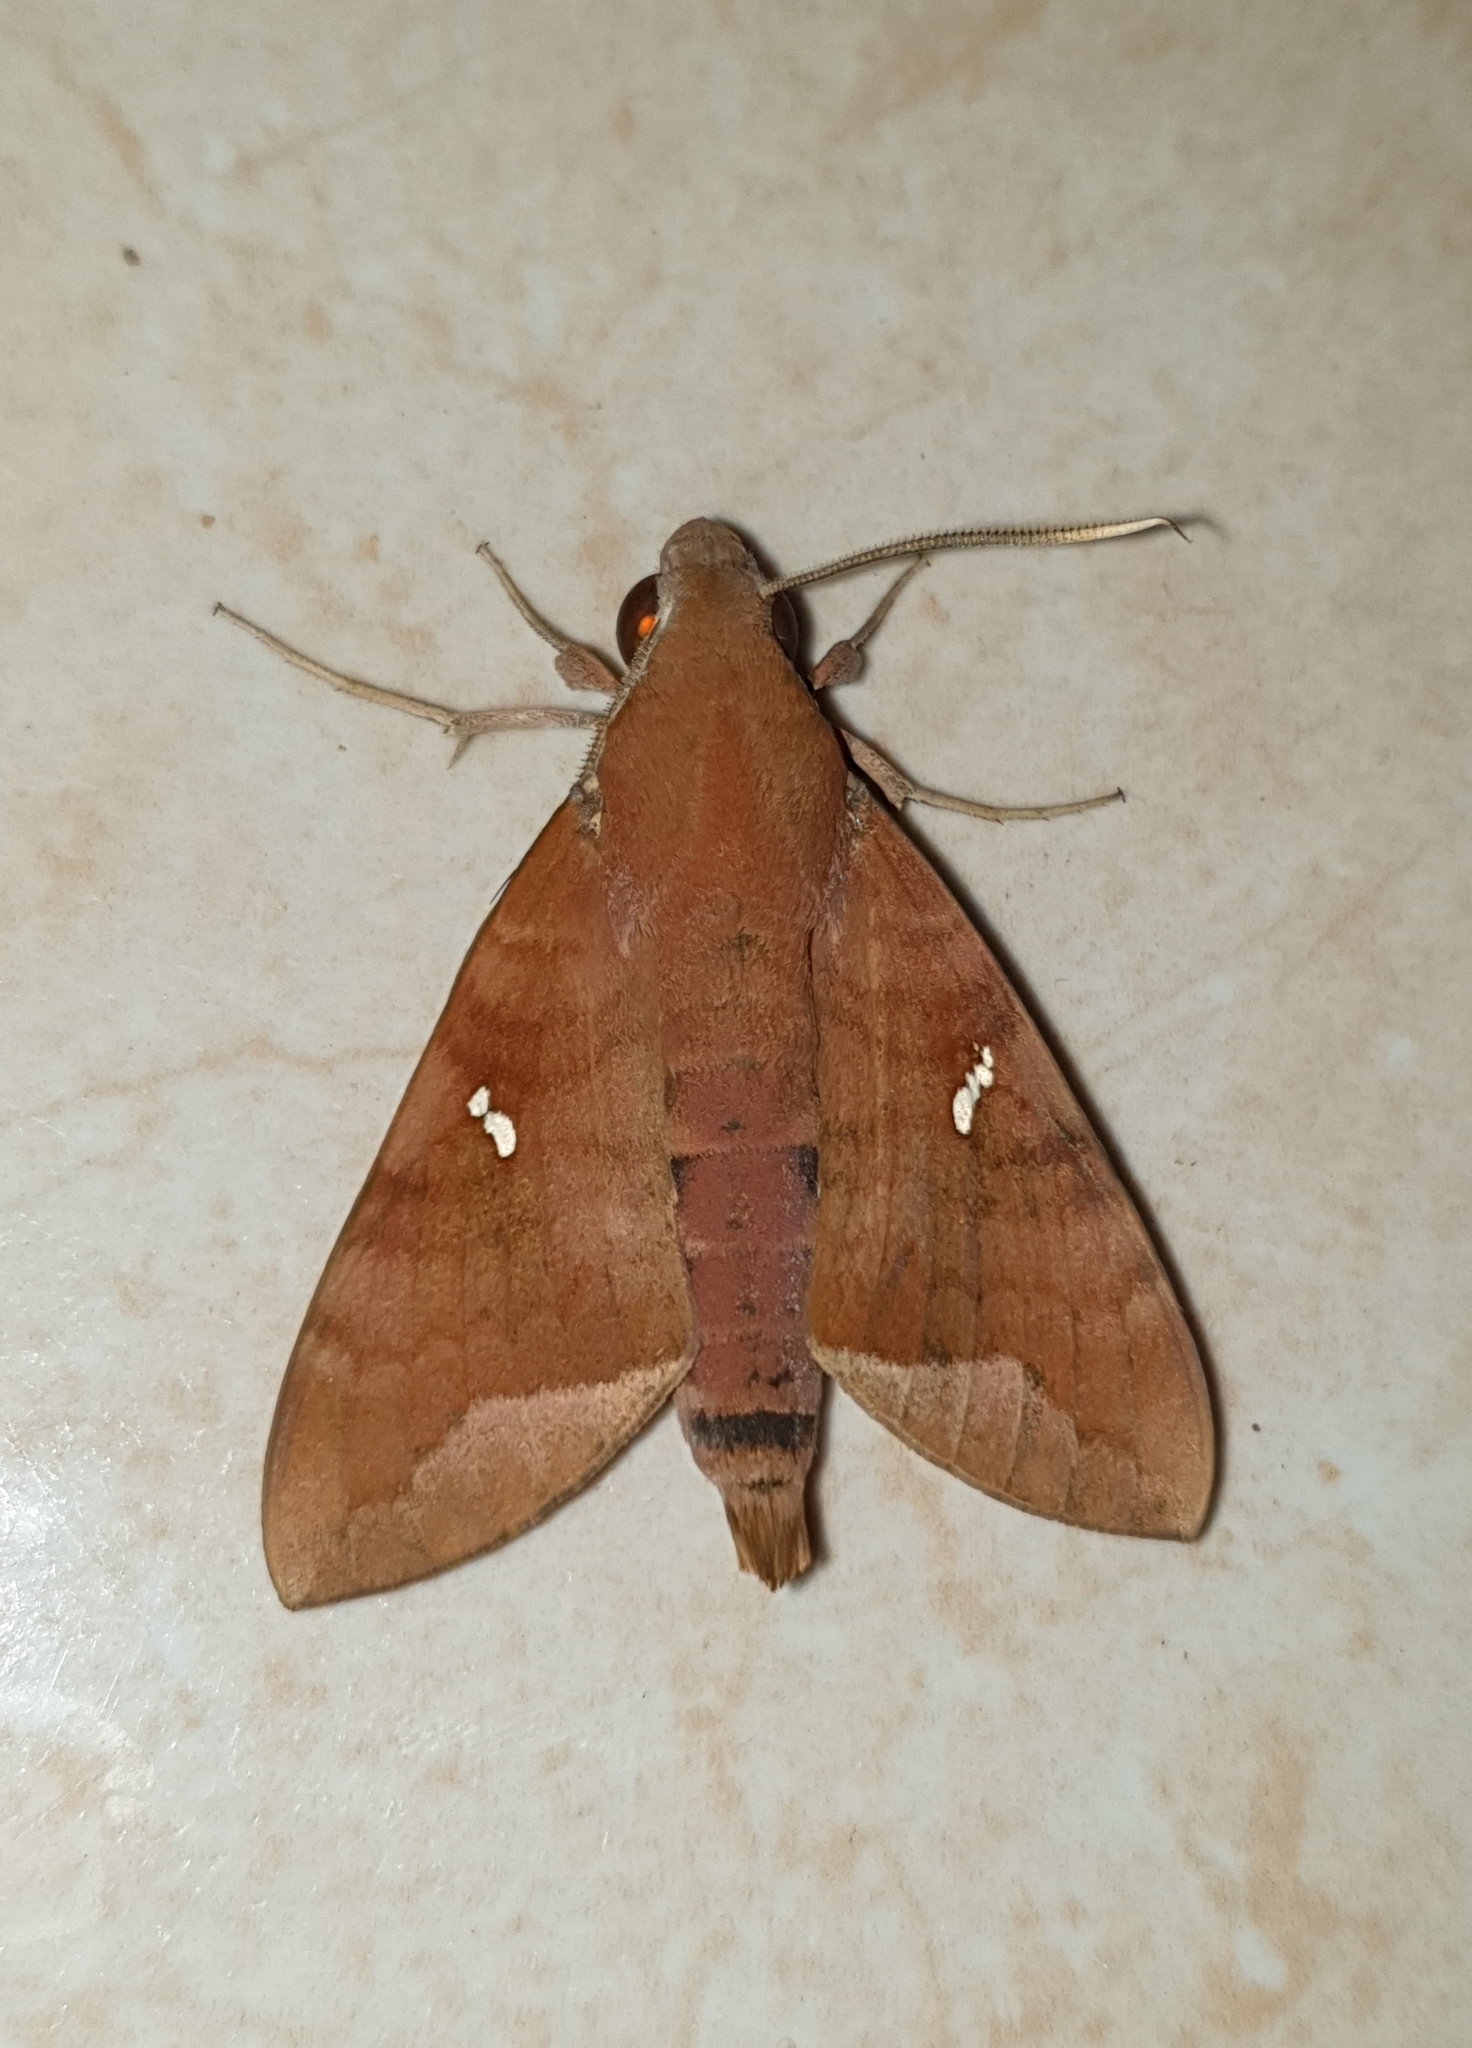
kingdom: Animalia
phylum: Arthropoda
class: Insecta
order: Lepidoptera
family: Sphingidae
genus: Nephele
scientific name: Nephele hespera
